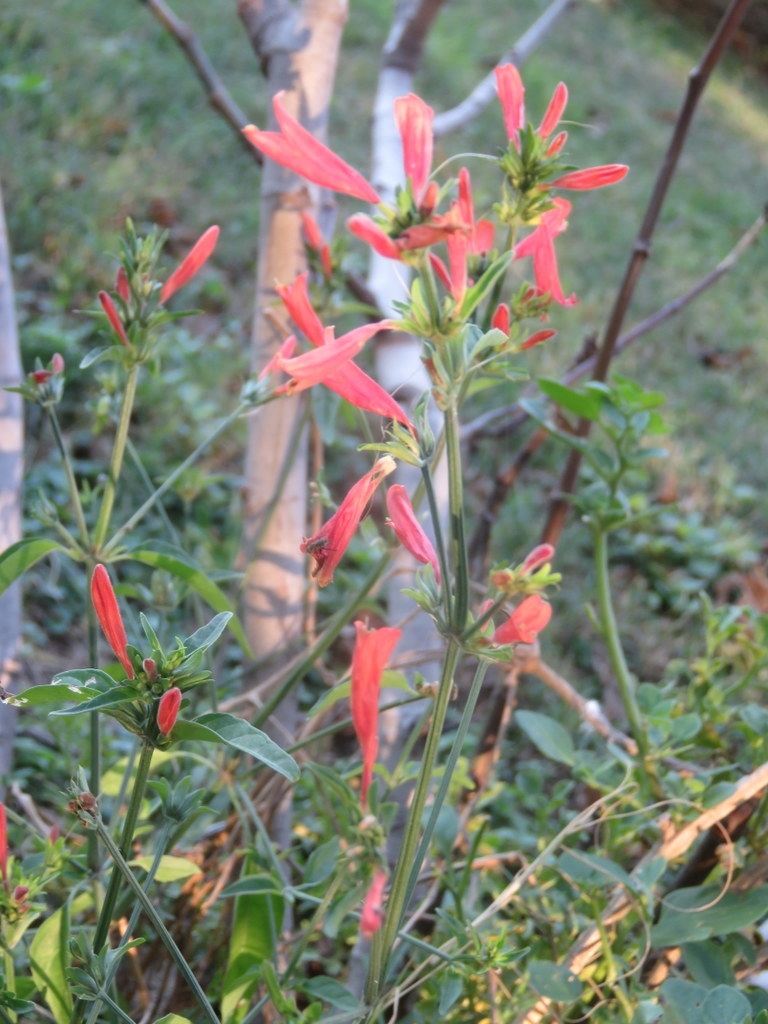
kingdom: Plantae
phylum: Tracheophyta
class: Magnoliopsida
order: Lamiales
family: Acanthaceae
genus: Dicliptera
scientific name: Dicliptera squarrosa
